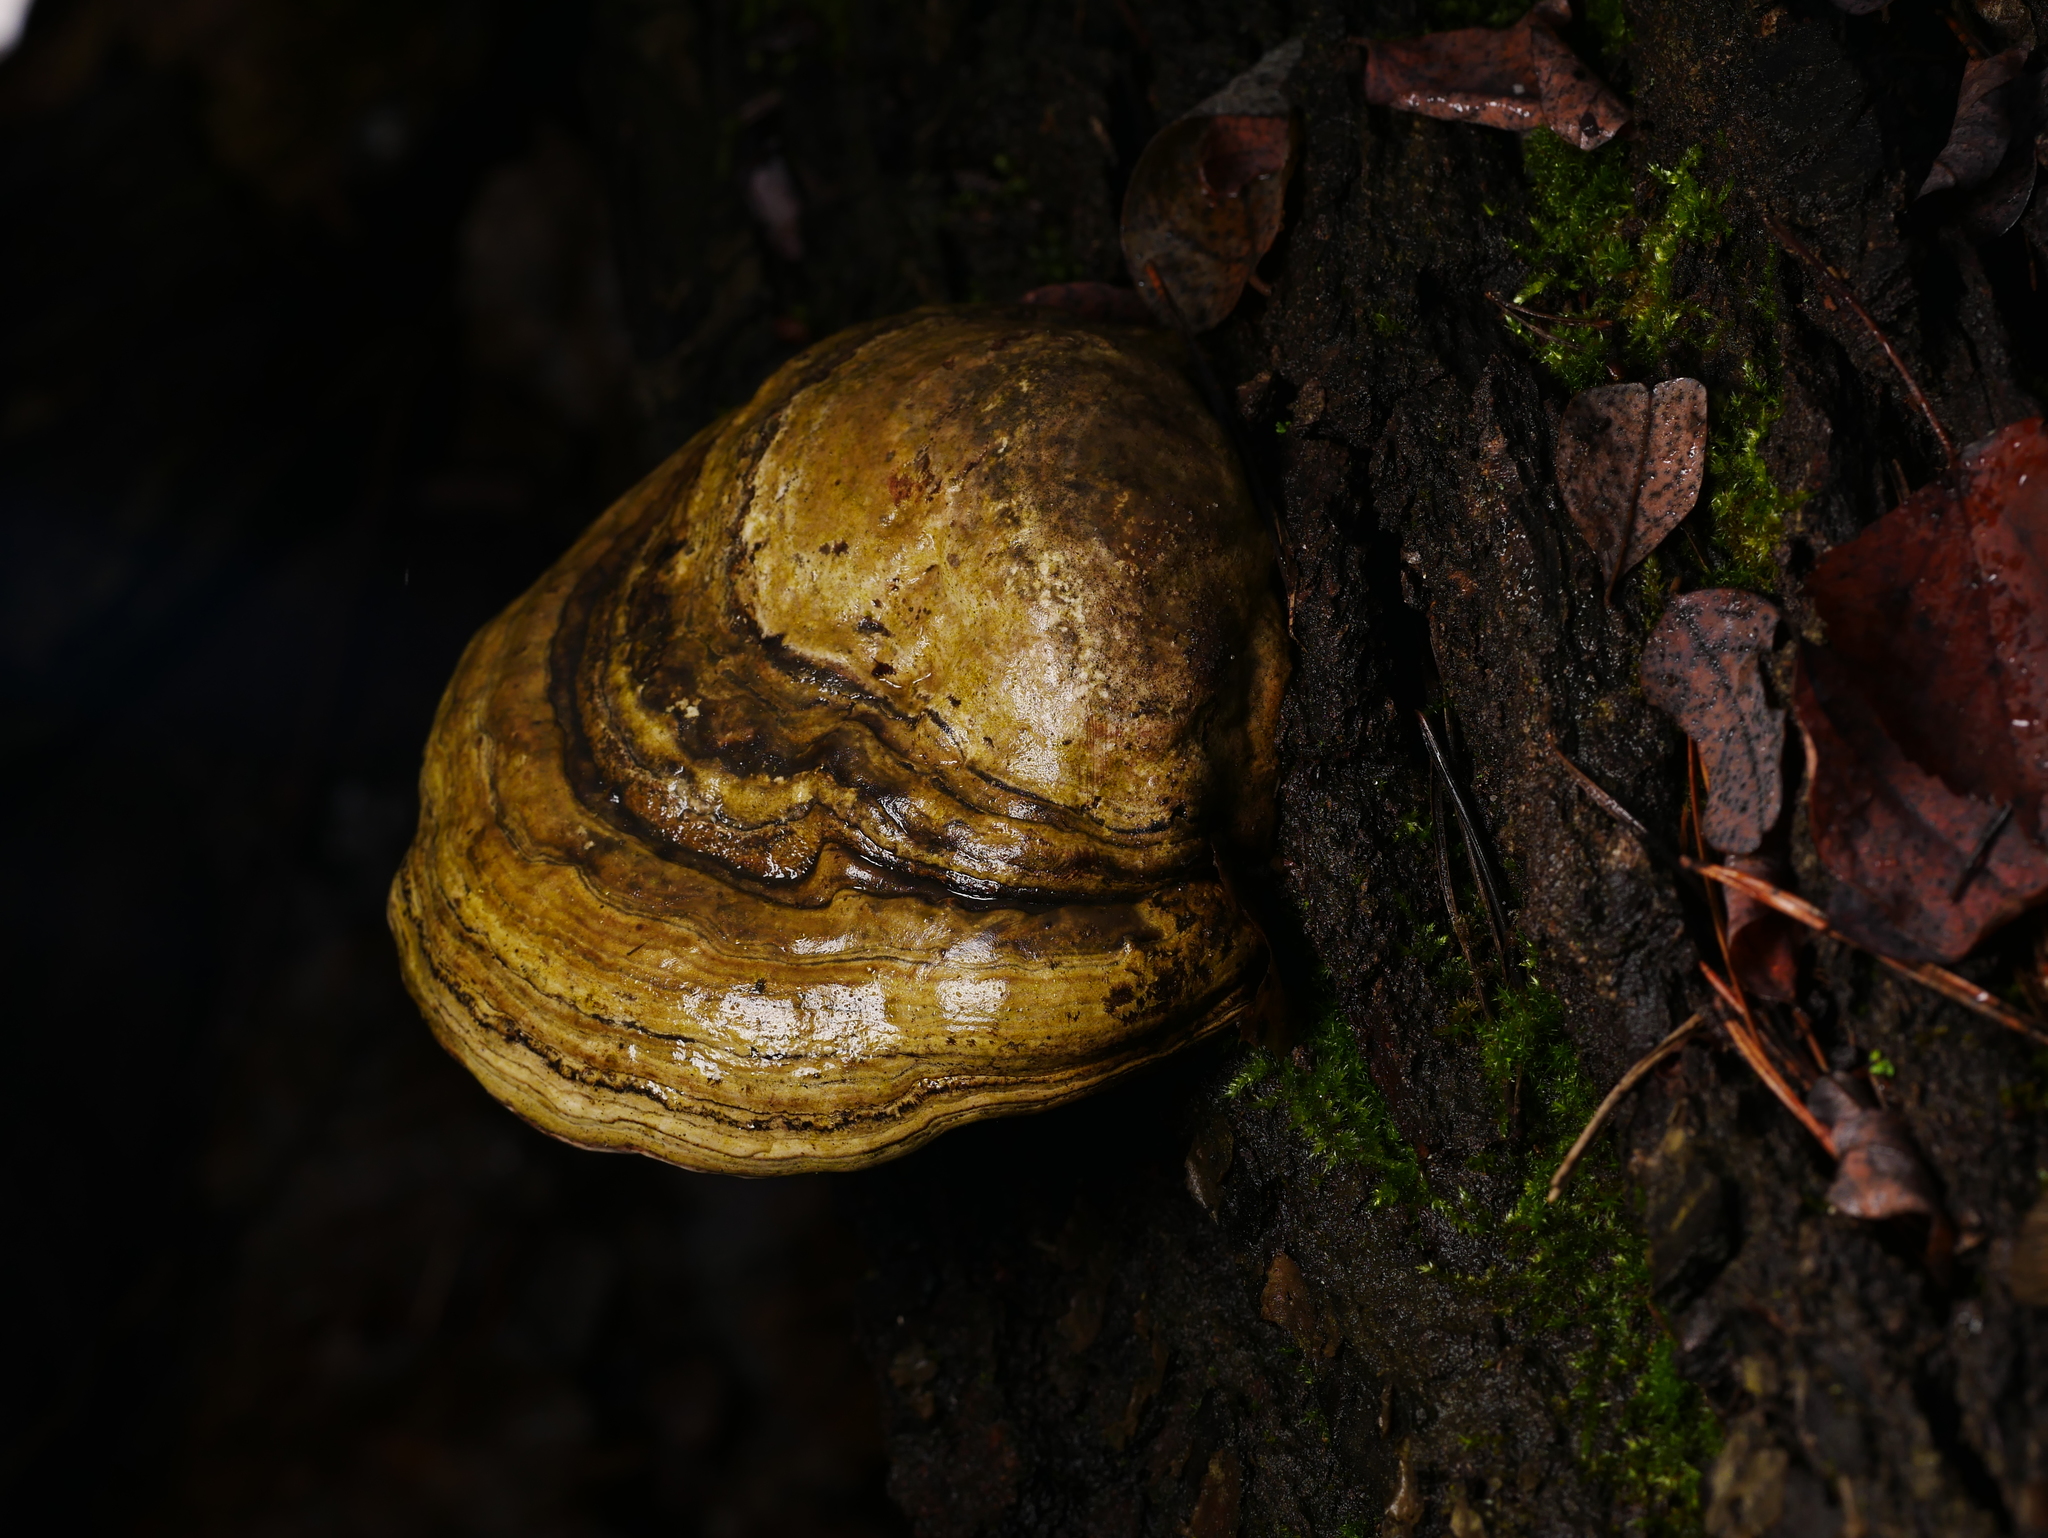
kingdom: Fungi
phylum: Basidiomycota
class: Agaricomycetes
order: Polyporales
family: Polyporaceae
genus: Fomes
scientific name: Fomes fomentarius
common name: Hoof fungus
